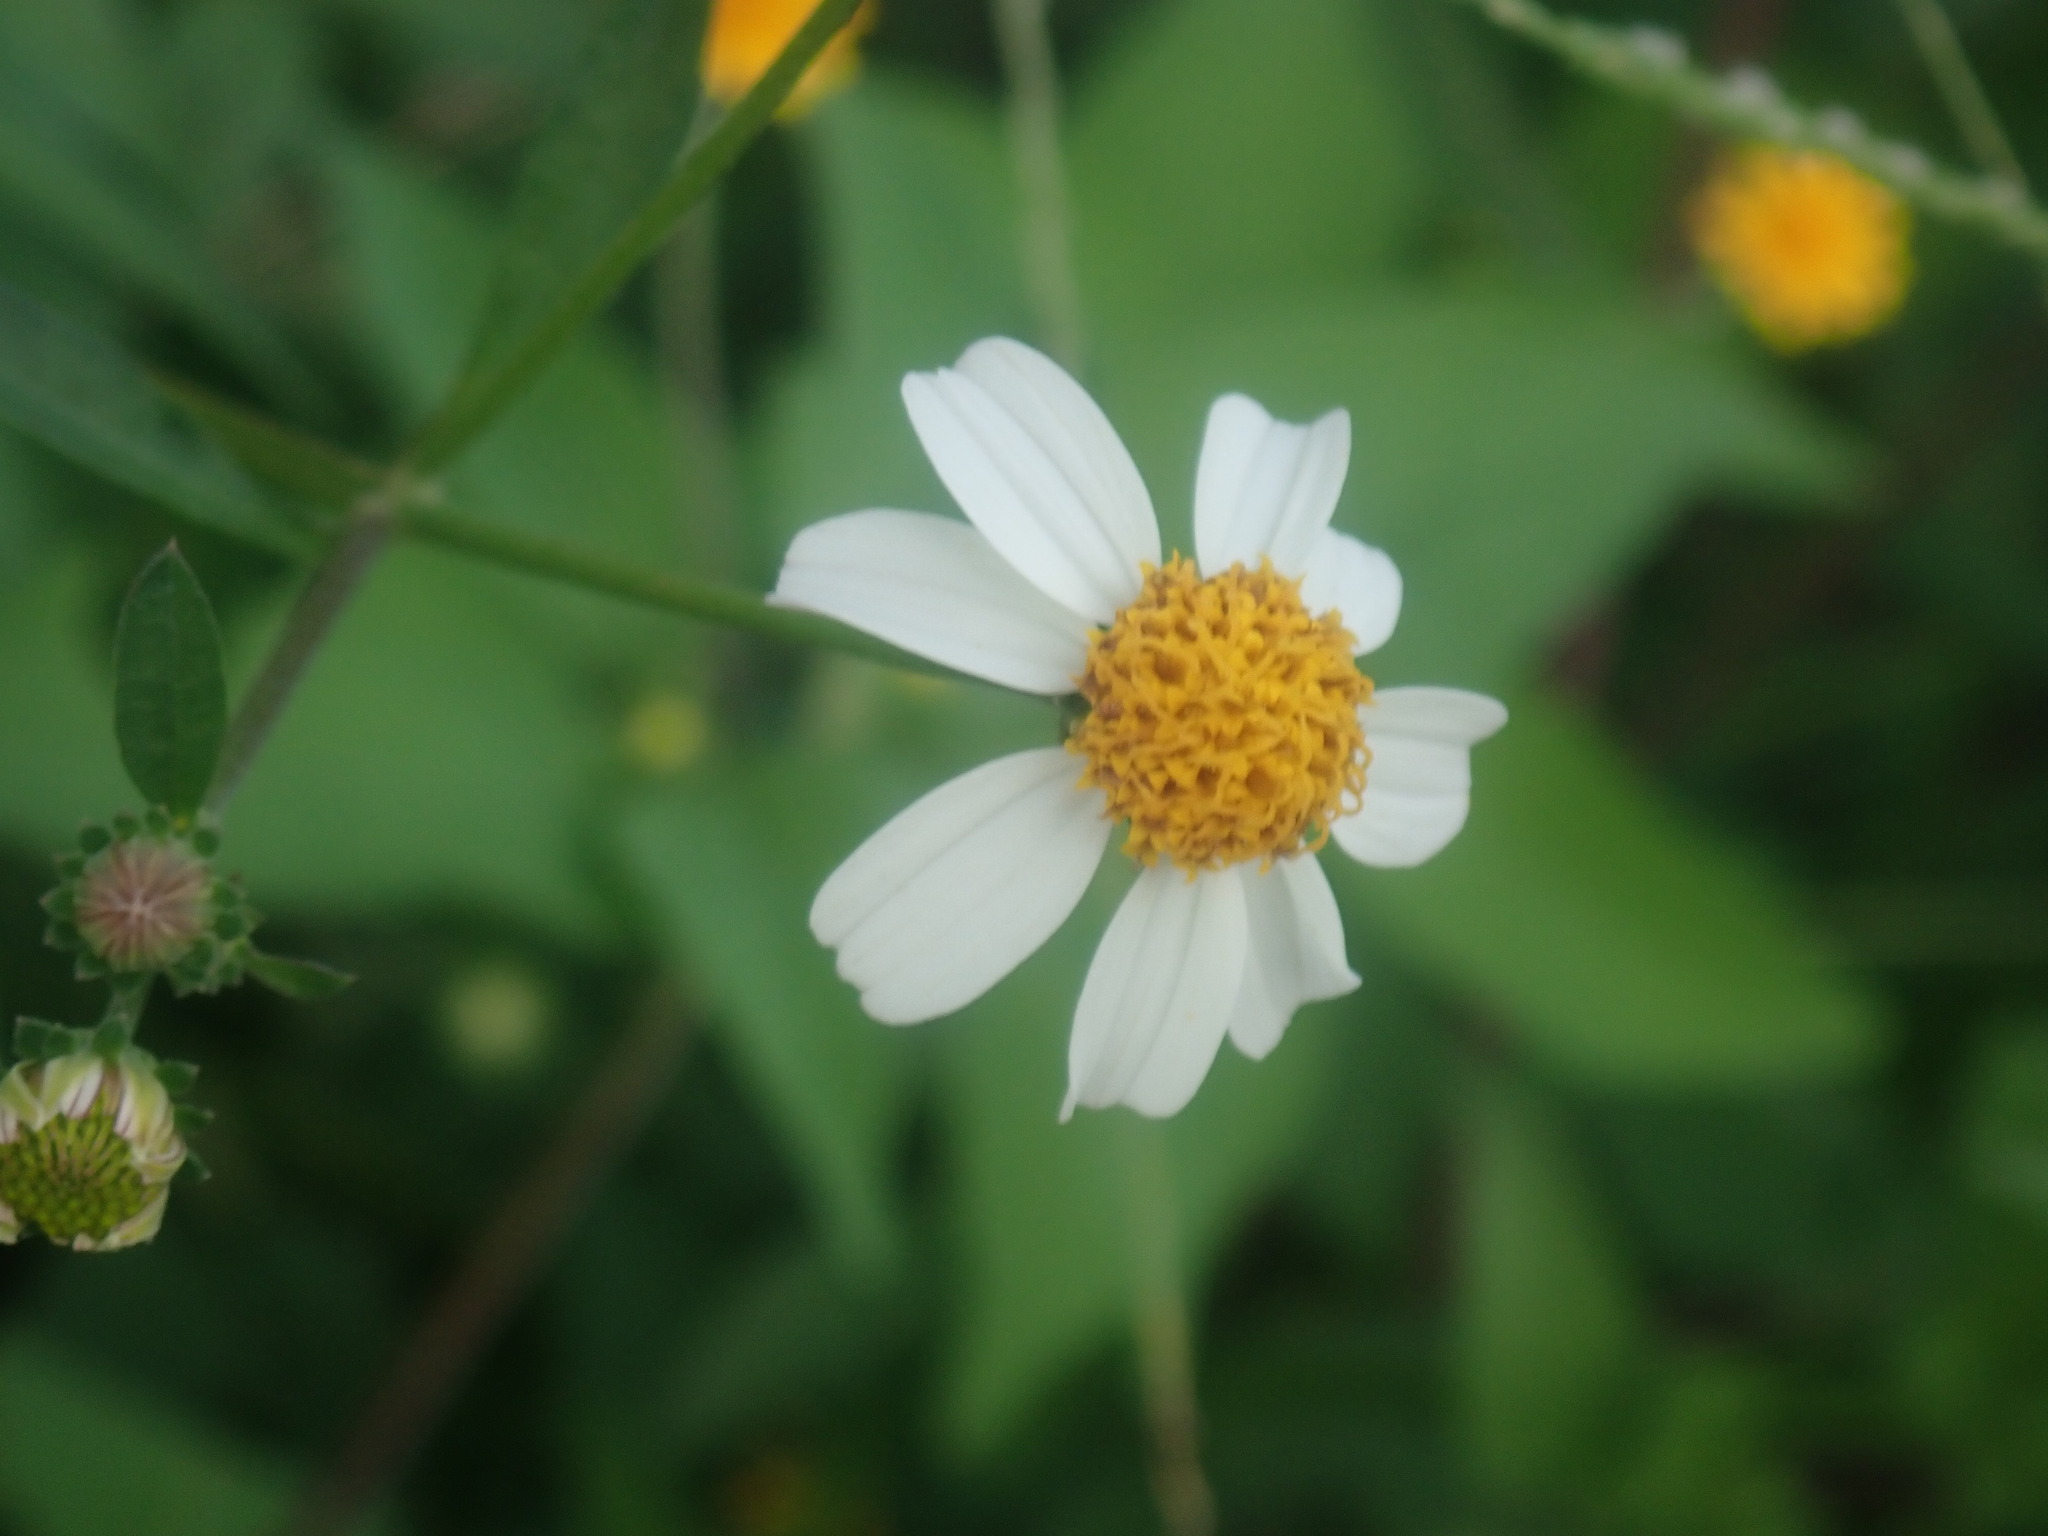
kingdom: Plantae
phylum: Tracheophyta
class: Magnoliopsida
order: Asterales
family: Asteraceae
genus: Bidens
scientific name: Bidens alba
